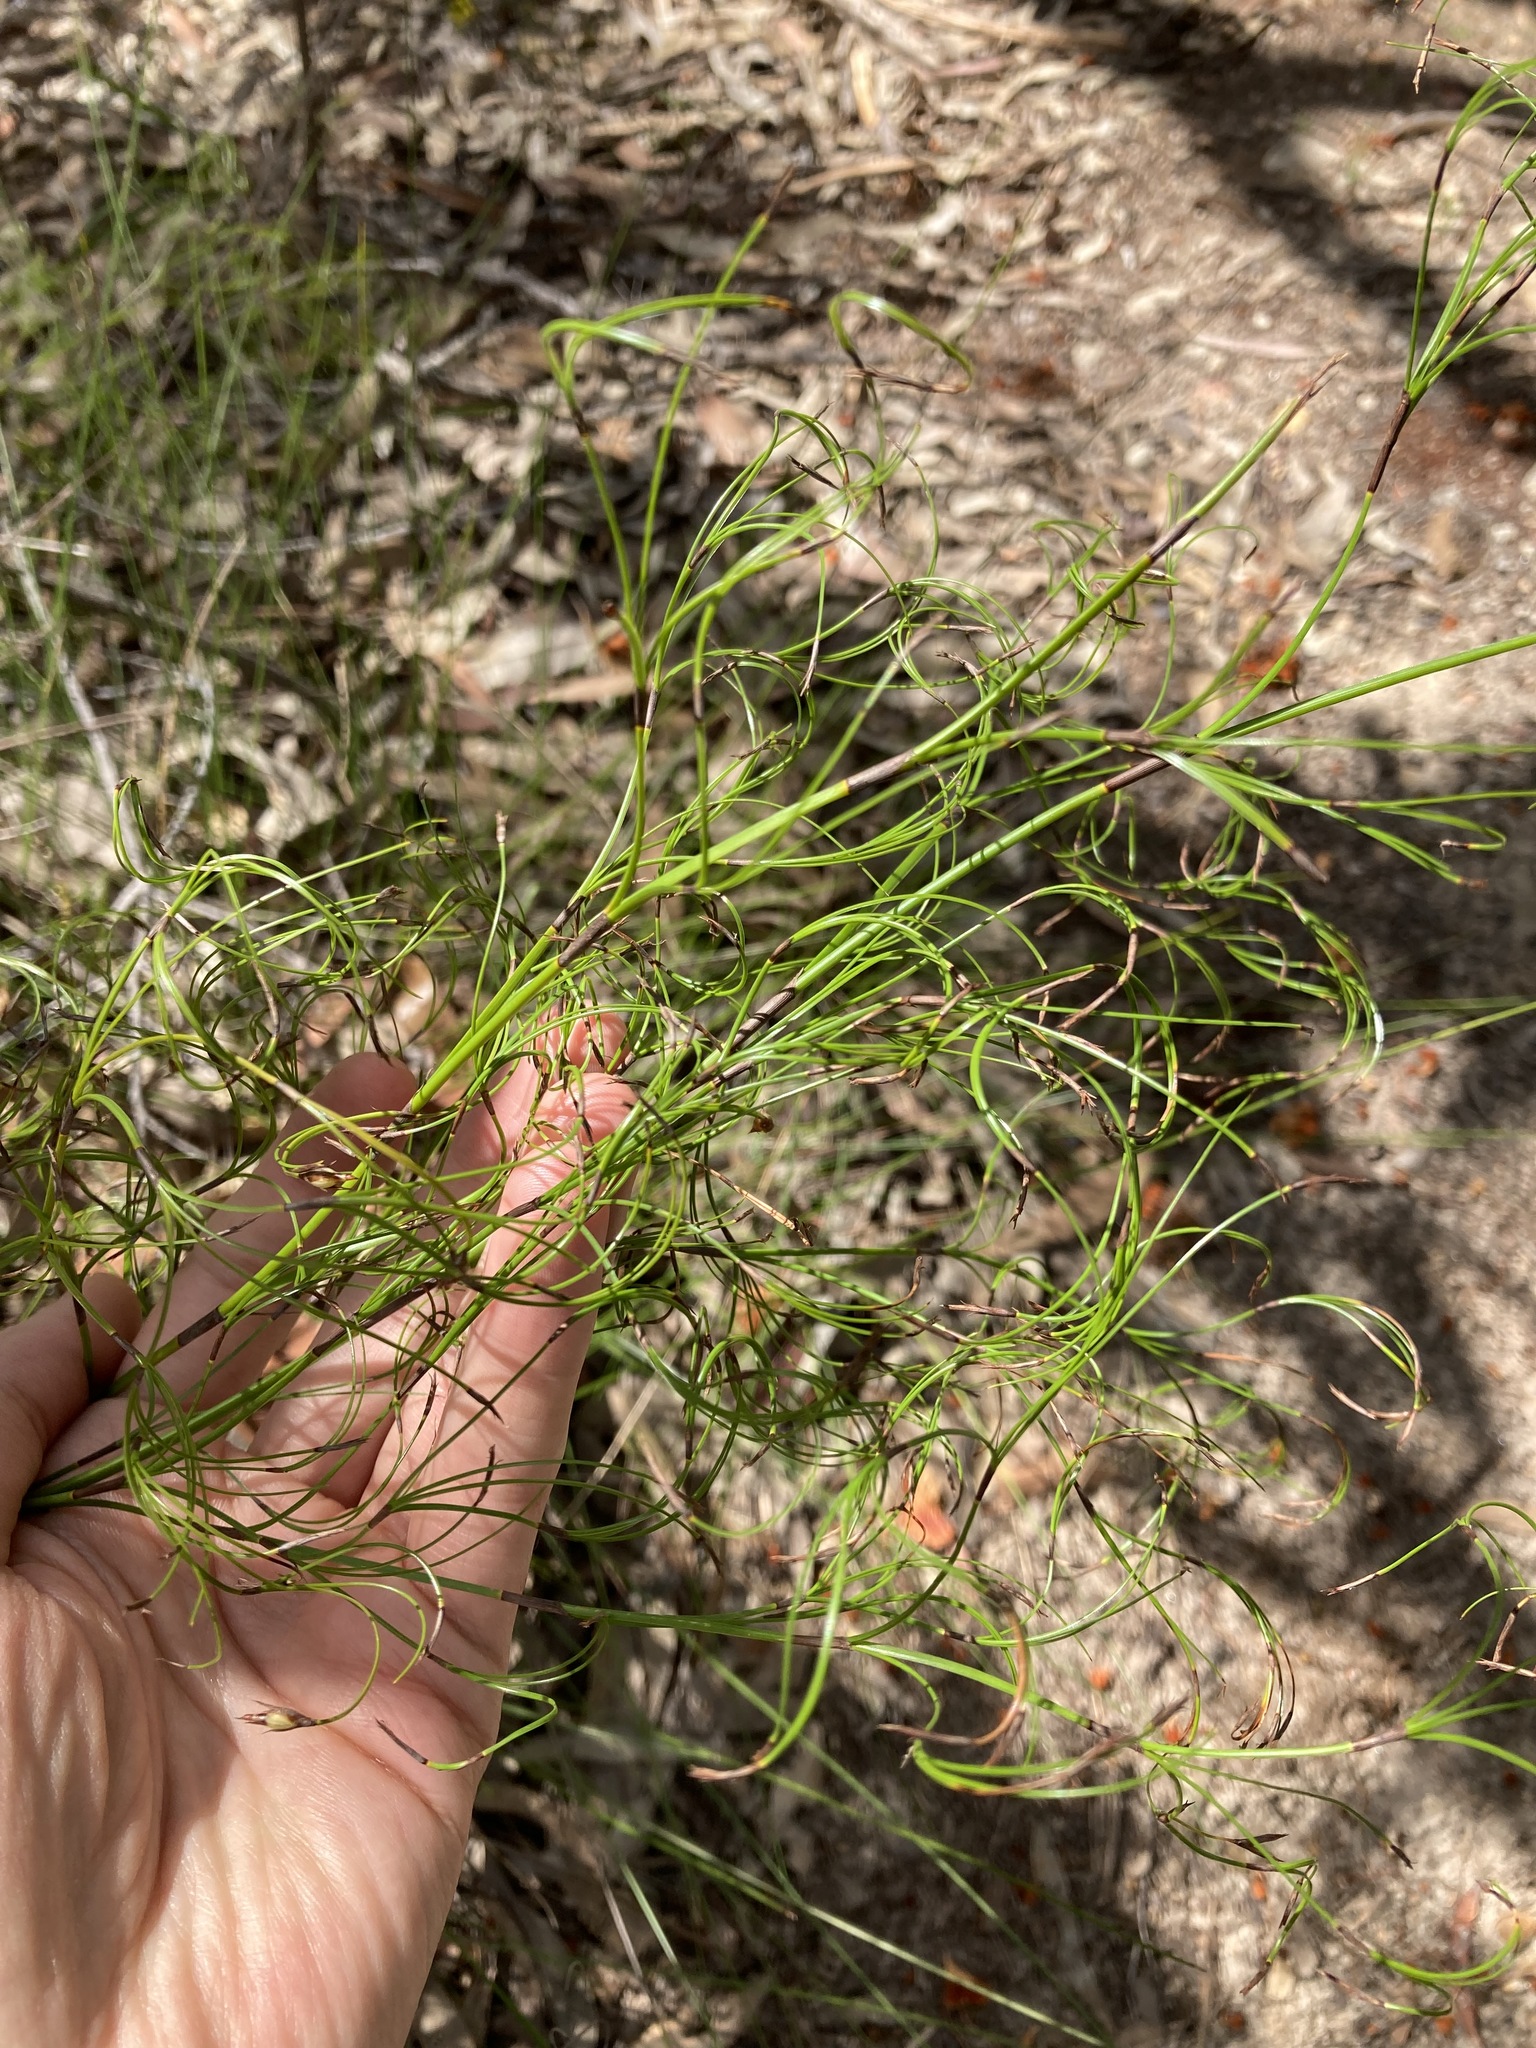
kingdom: Plantae
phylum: Tracheophyta
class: Liliopsida
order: Poales
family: Cyperaceae
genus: Caustis
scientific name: Caustis flexuosa
